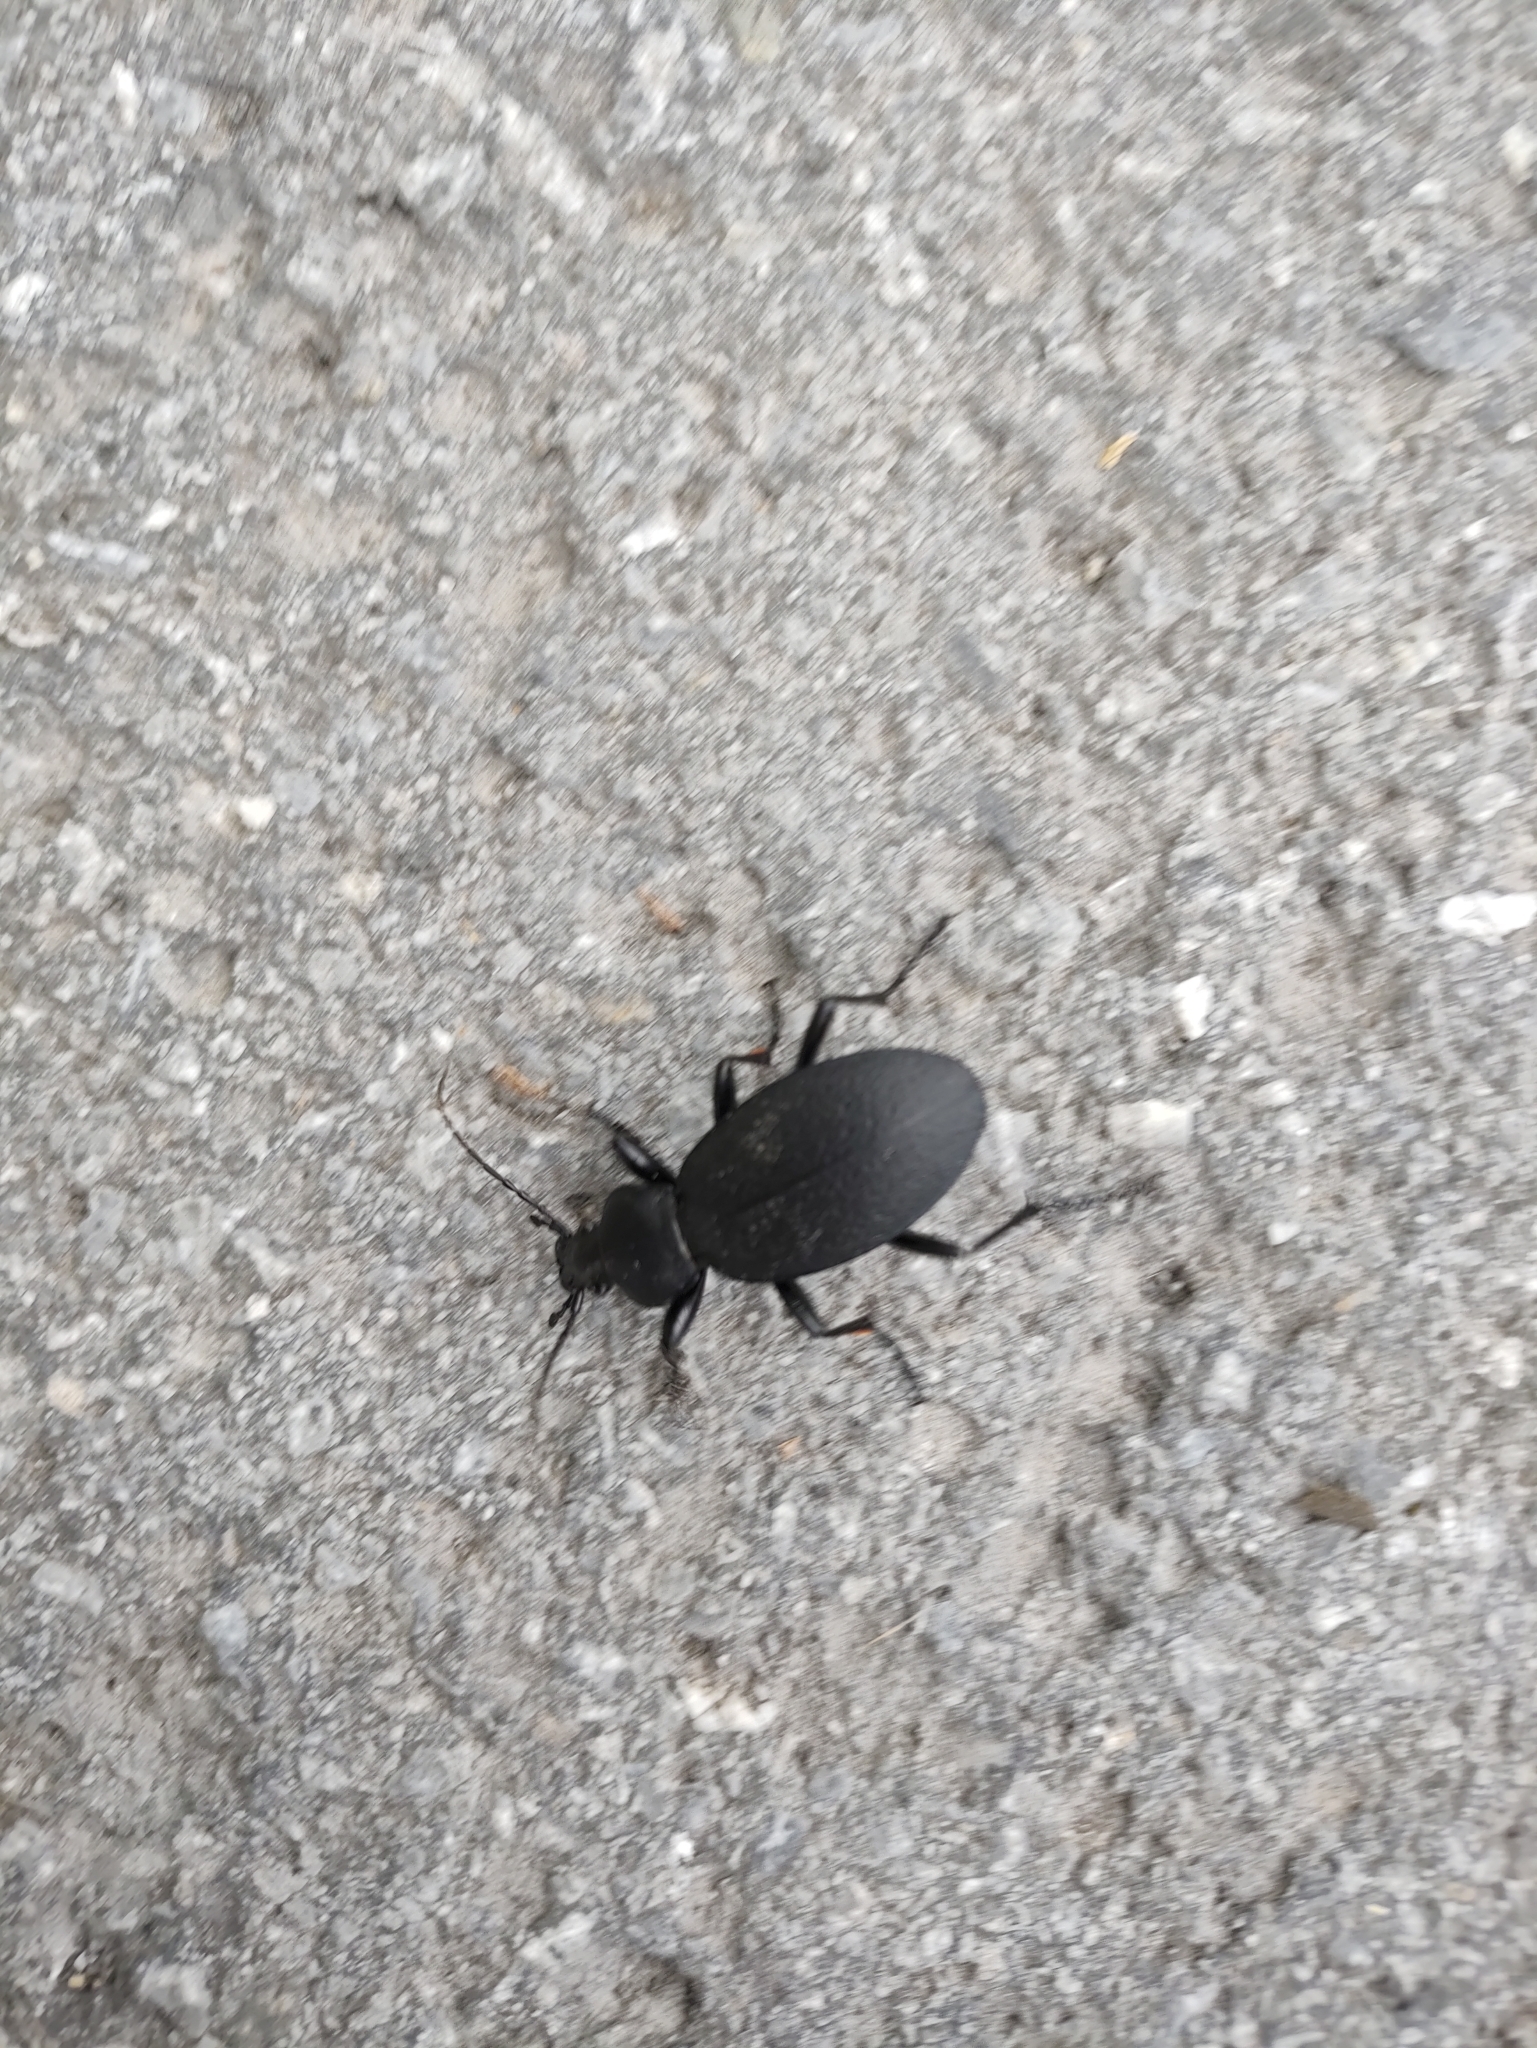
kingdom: Animalia
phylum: Arthropoda
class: Insecta
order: Coleoptera
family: Carabidae
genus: Carabus
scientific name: Carabus coriaceus
